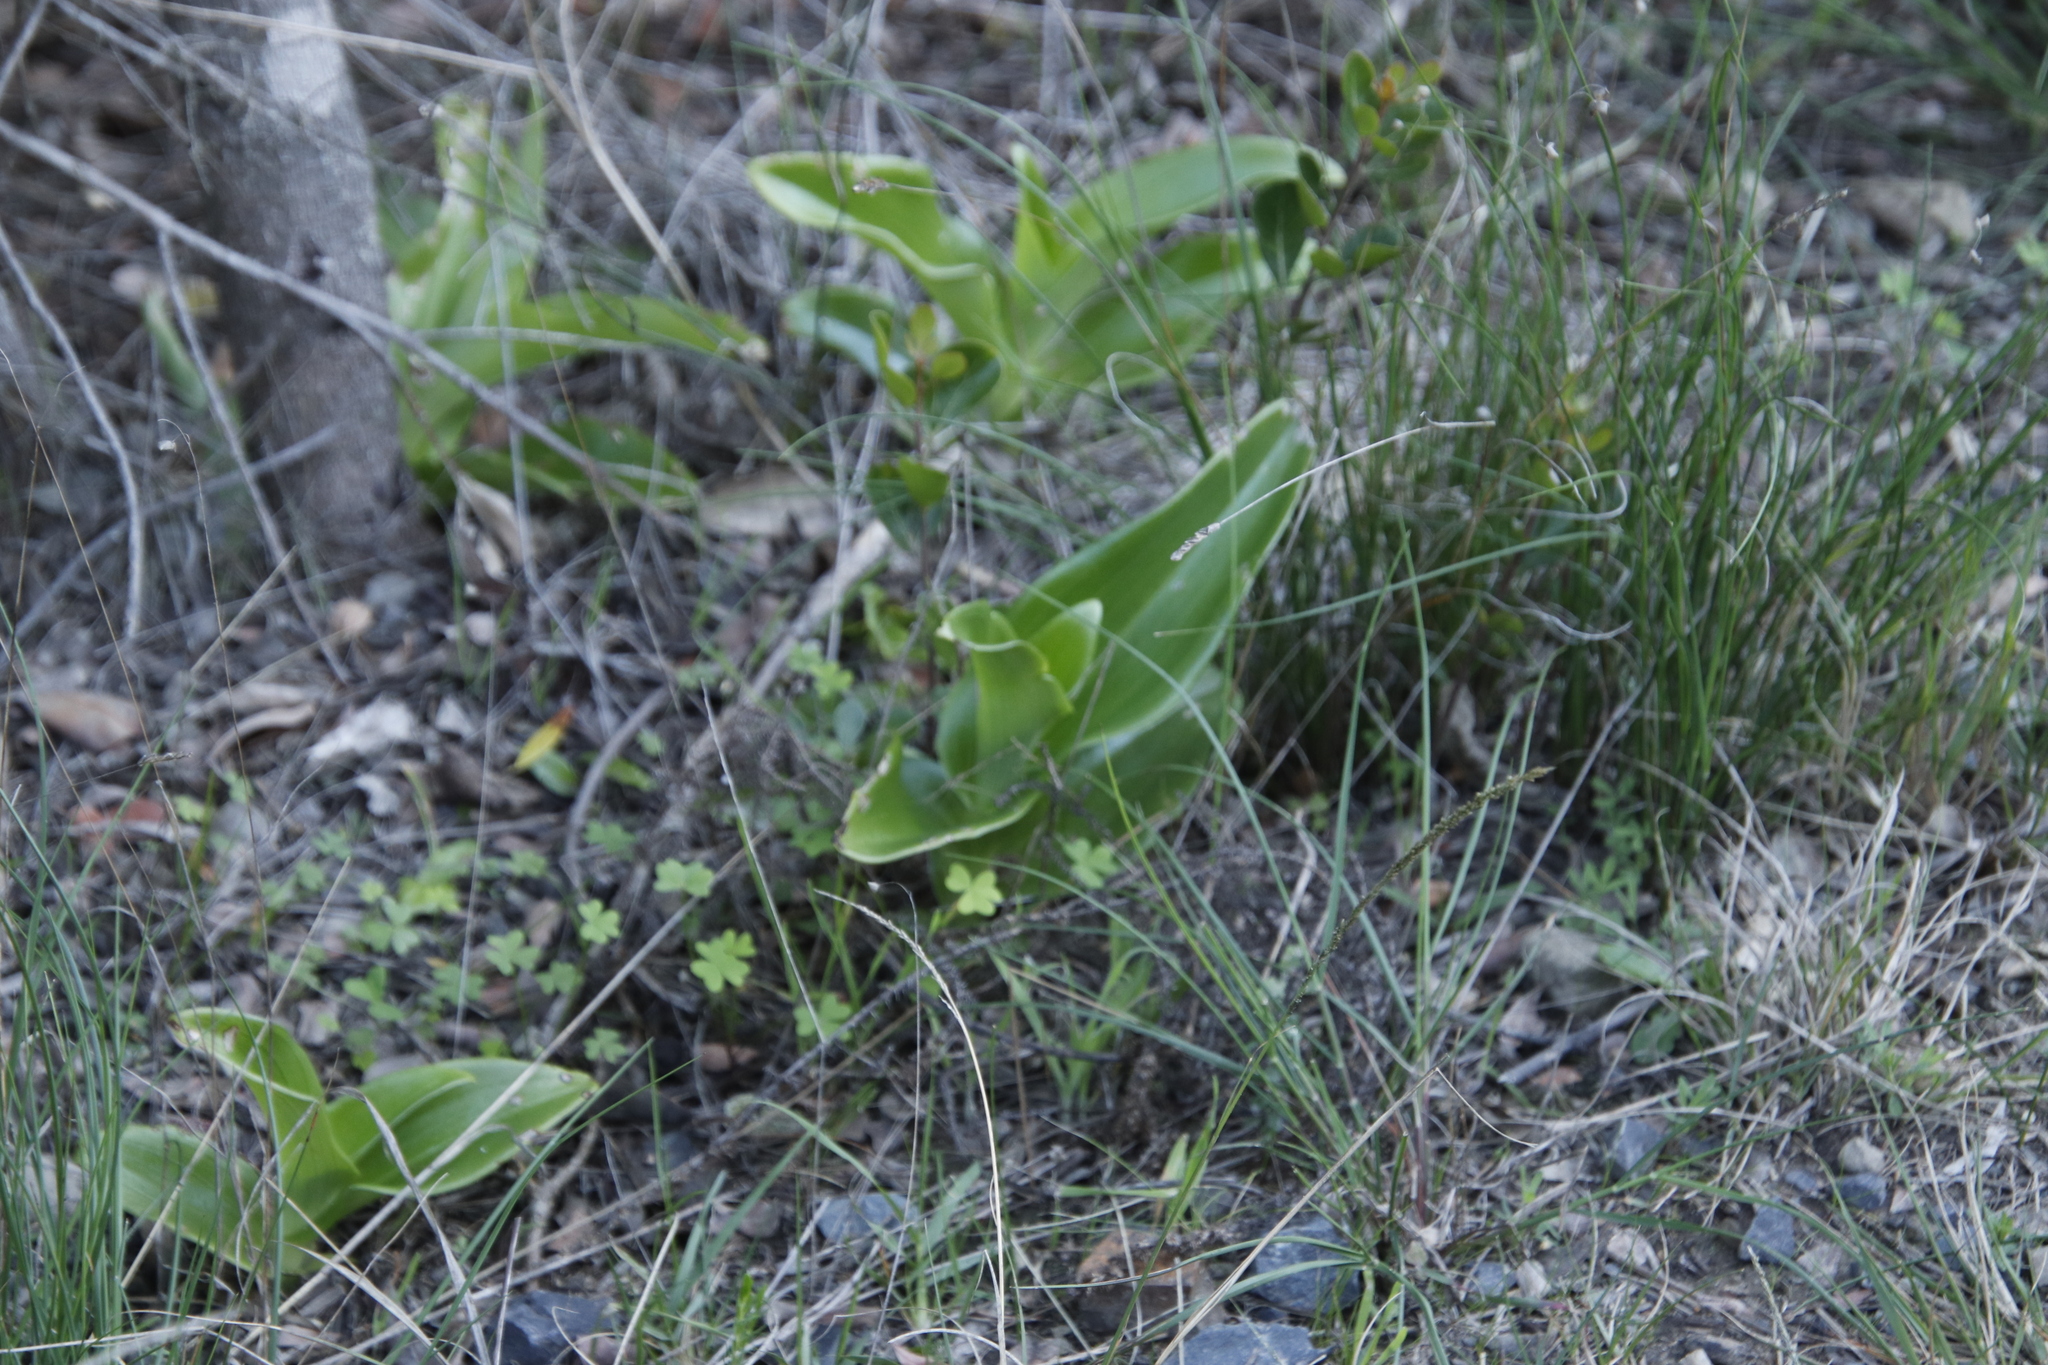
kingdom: Plantae
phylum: Tracheophyta
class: Liliopsida
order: Asparagales
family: Orchidaceae
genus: Satyrium
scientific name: Satyrium odorum
